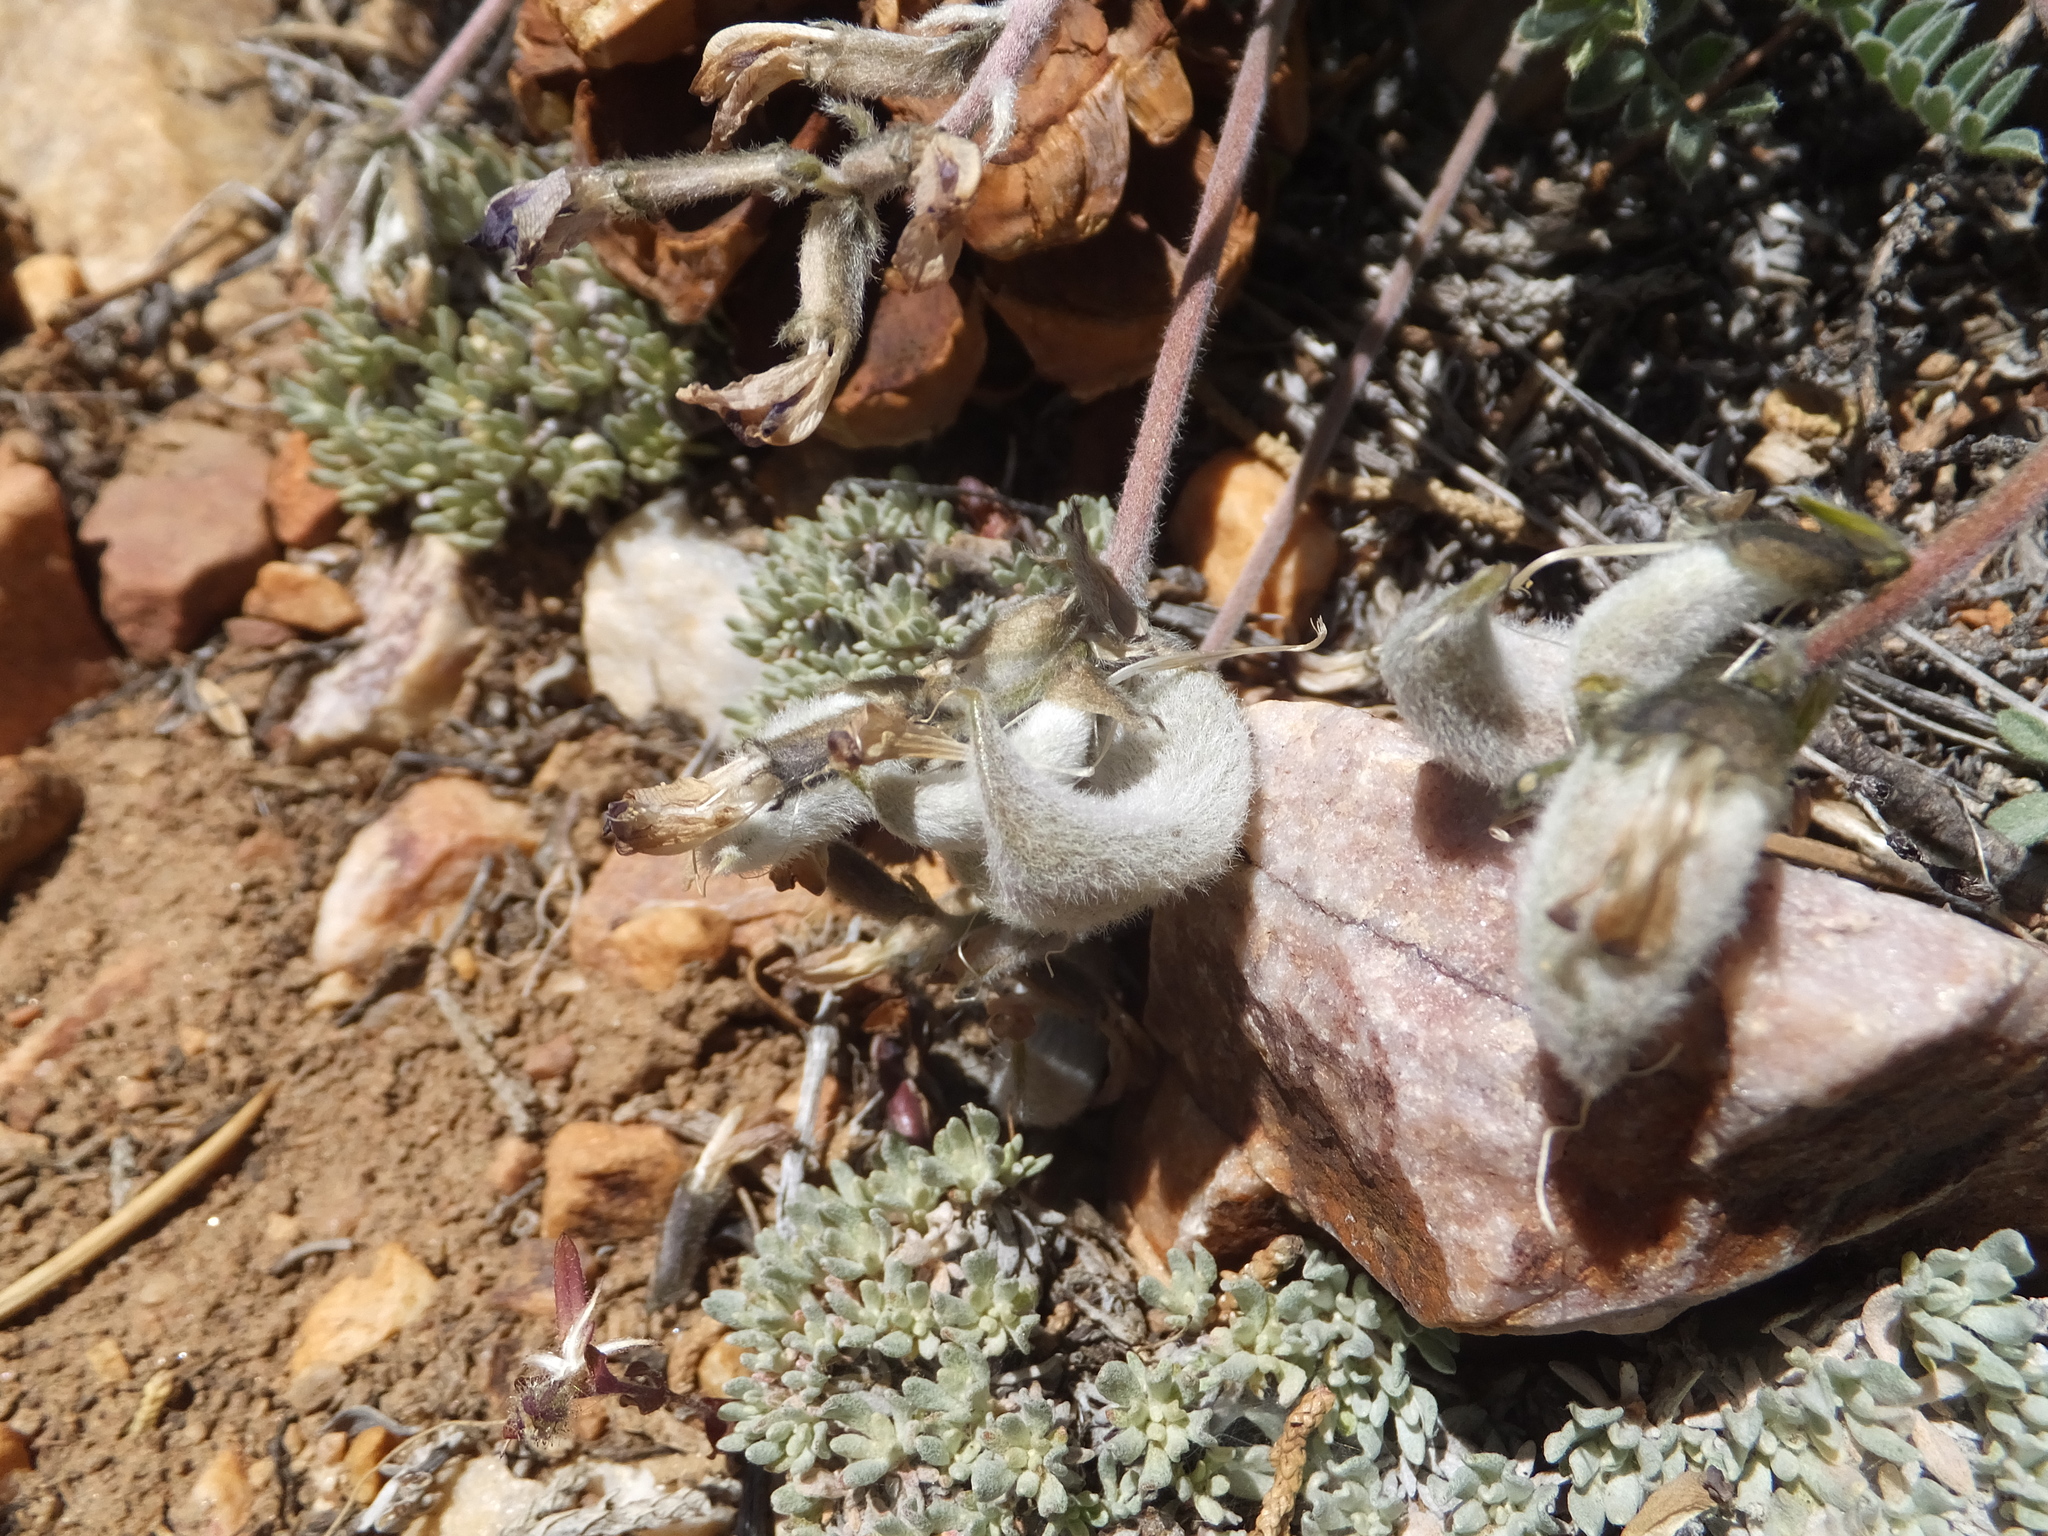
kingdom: Plantae
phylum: Tracheophyta
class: Magnoliopsida
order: Fabales
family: Fabaceae
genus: Astragalus
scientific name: Astragalus leucolobus
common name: Big bear valley woollypod
